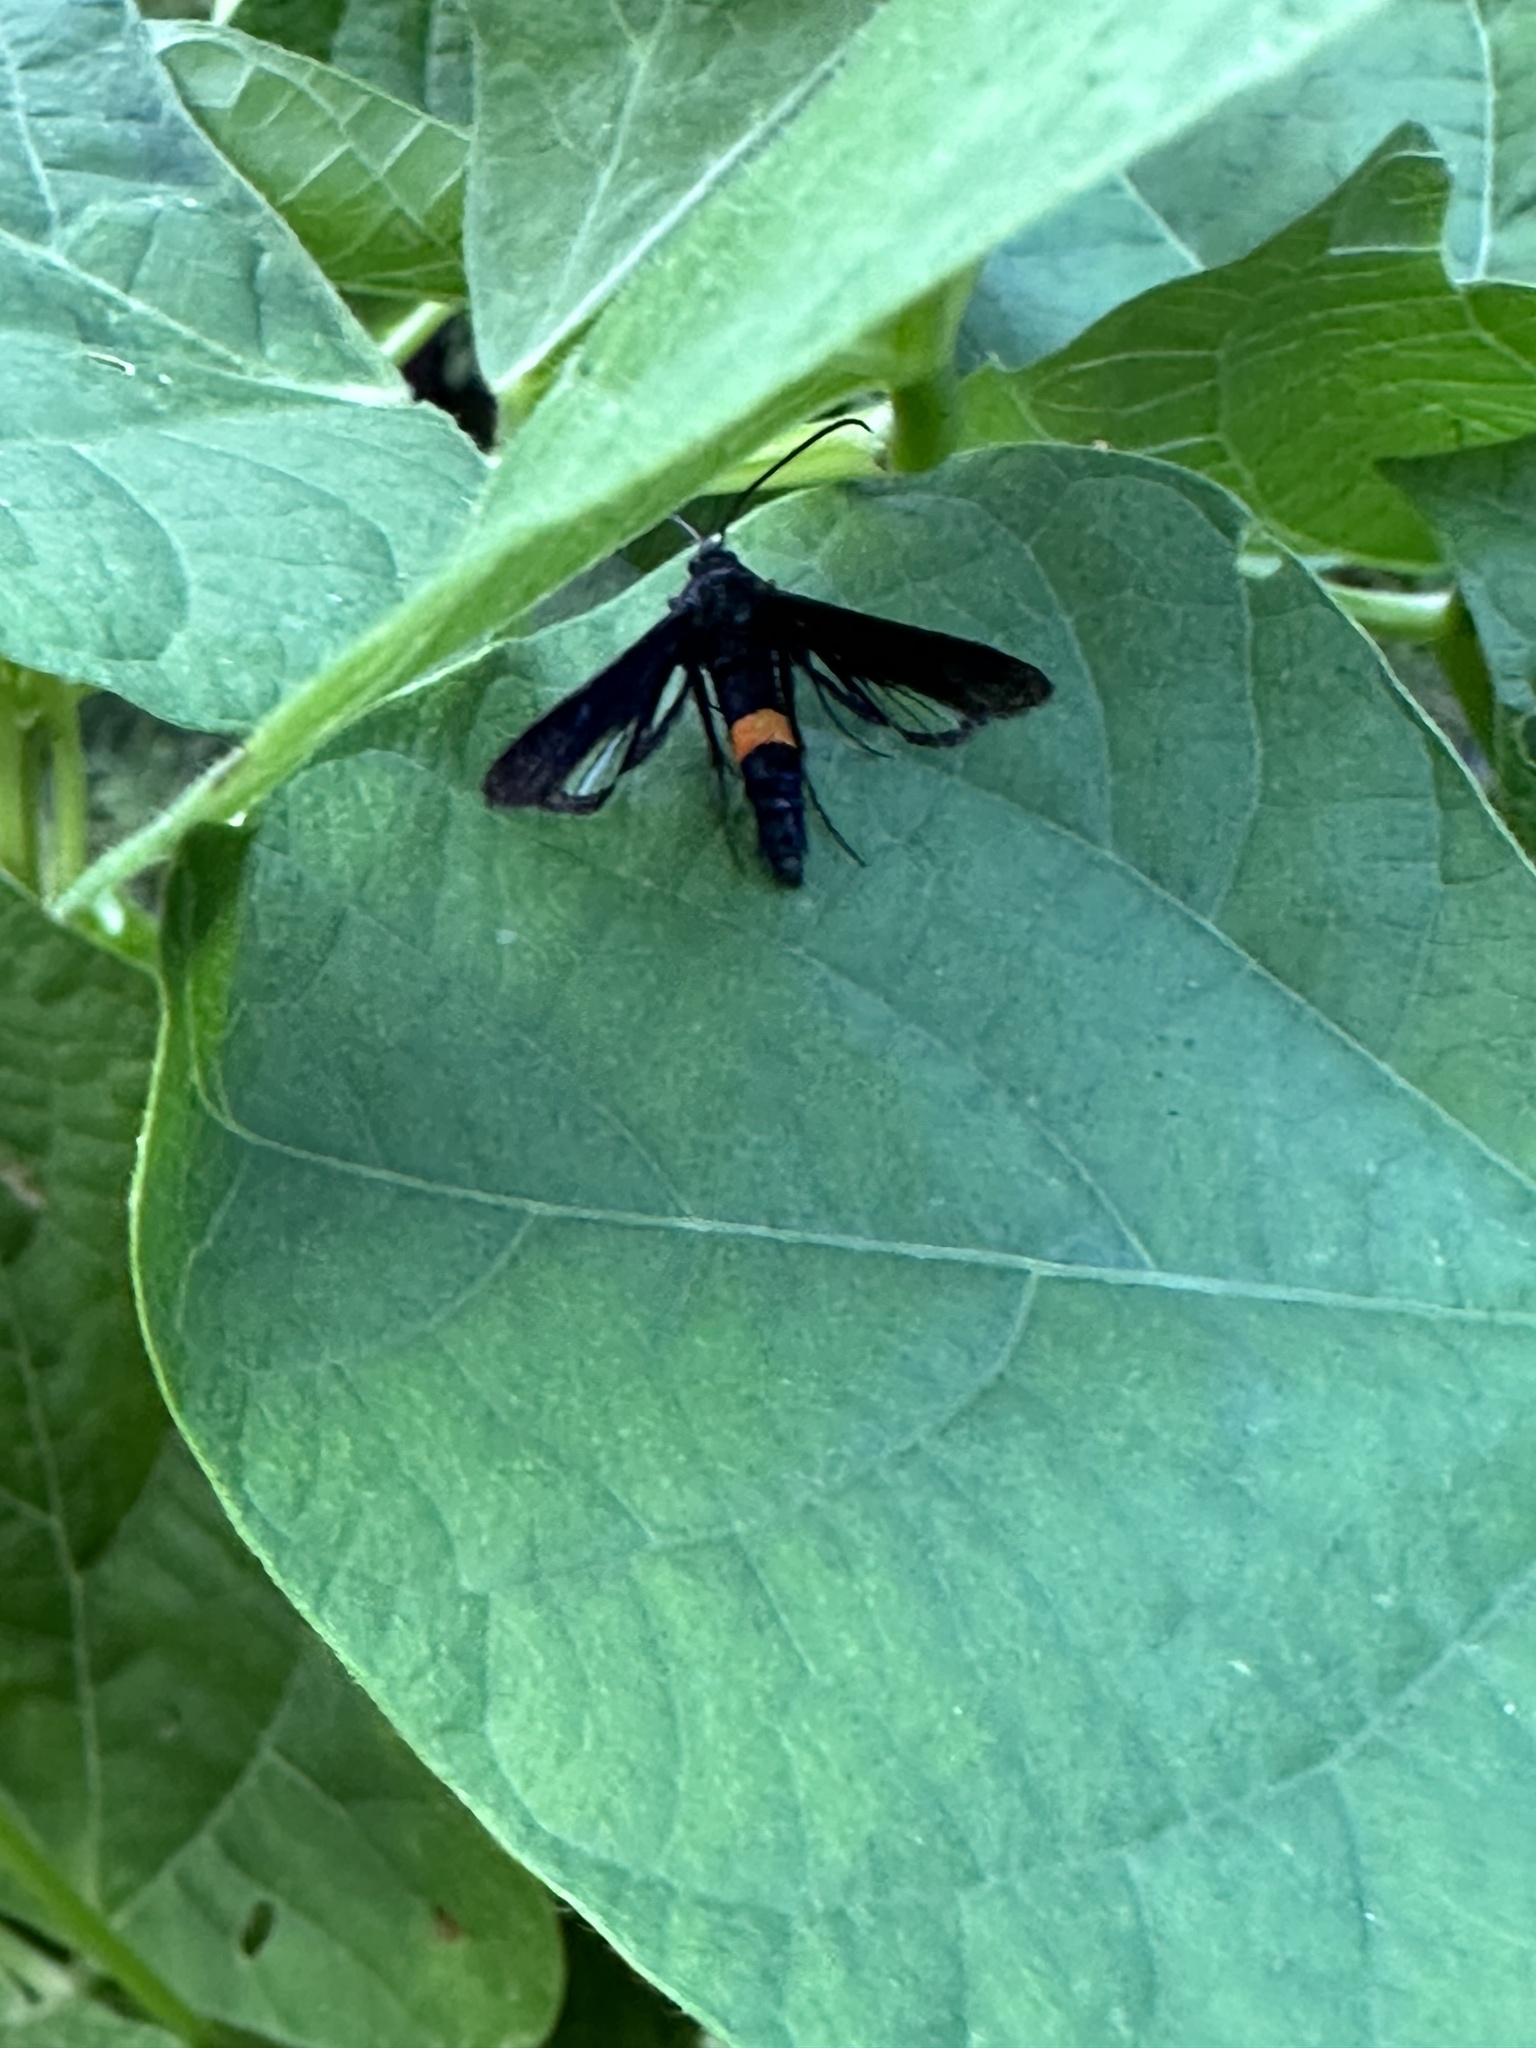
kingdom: Animalia
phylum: Arthropoda
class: Insecta
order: Lepidoptera
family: Sesiidae
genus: Synanthedon
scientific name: Synanthedon exitiosa
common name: Peachtree borer moth
